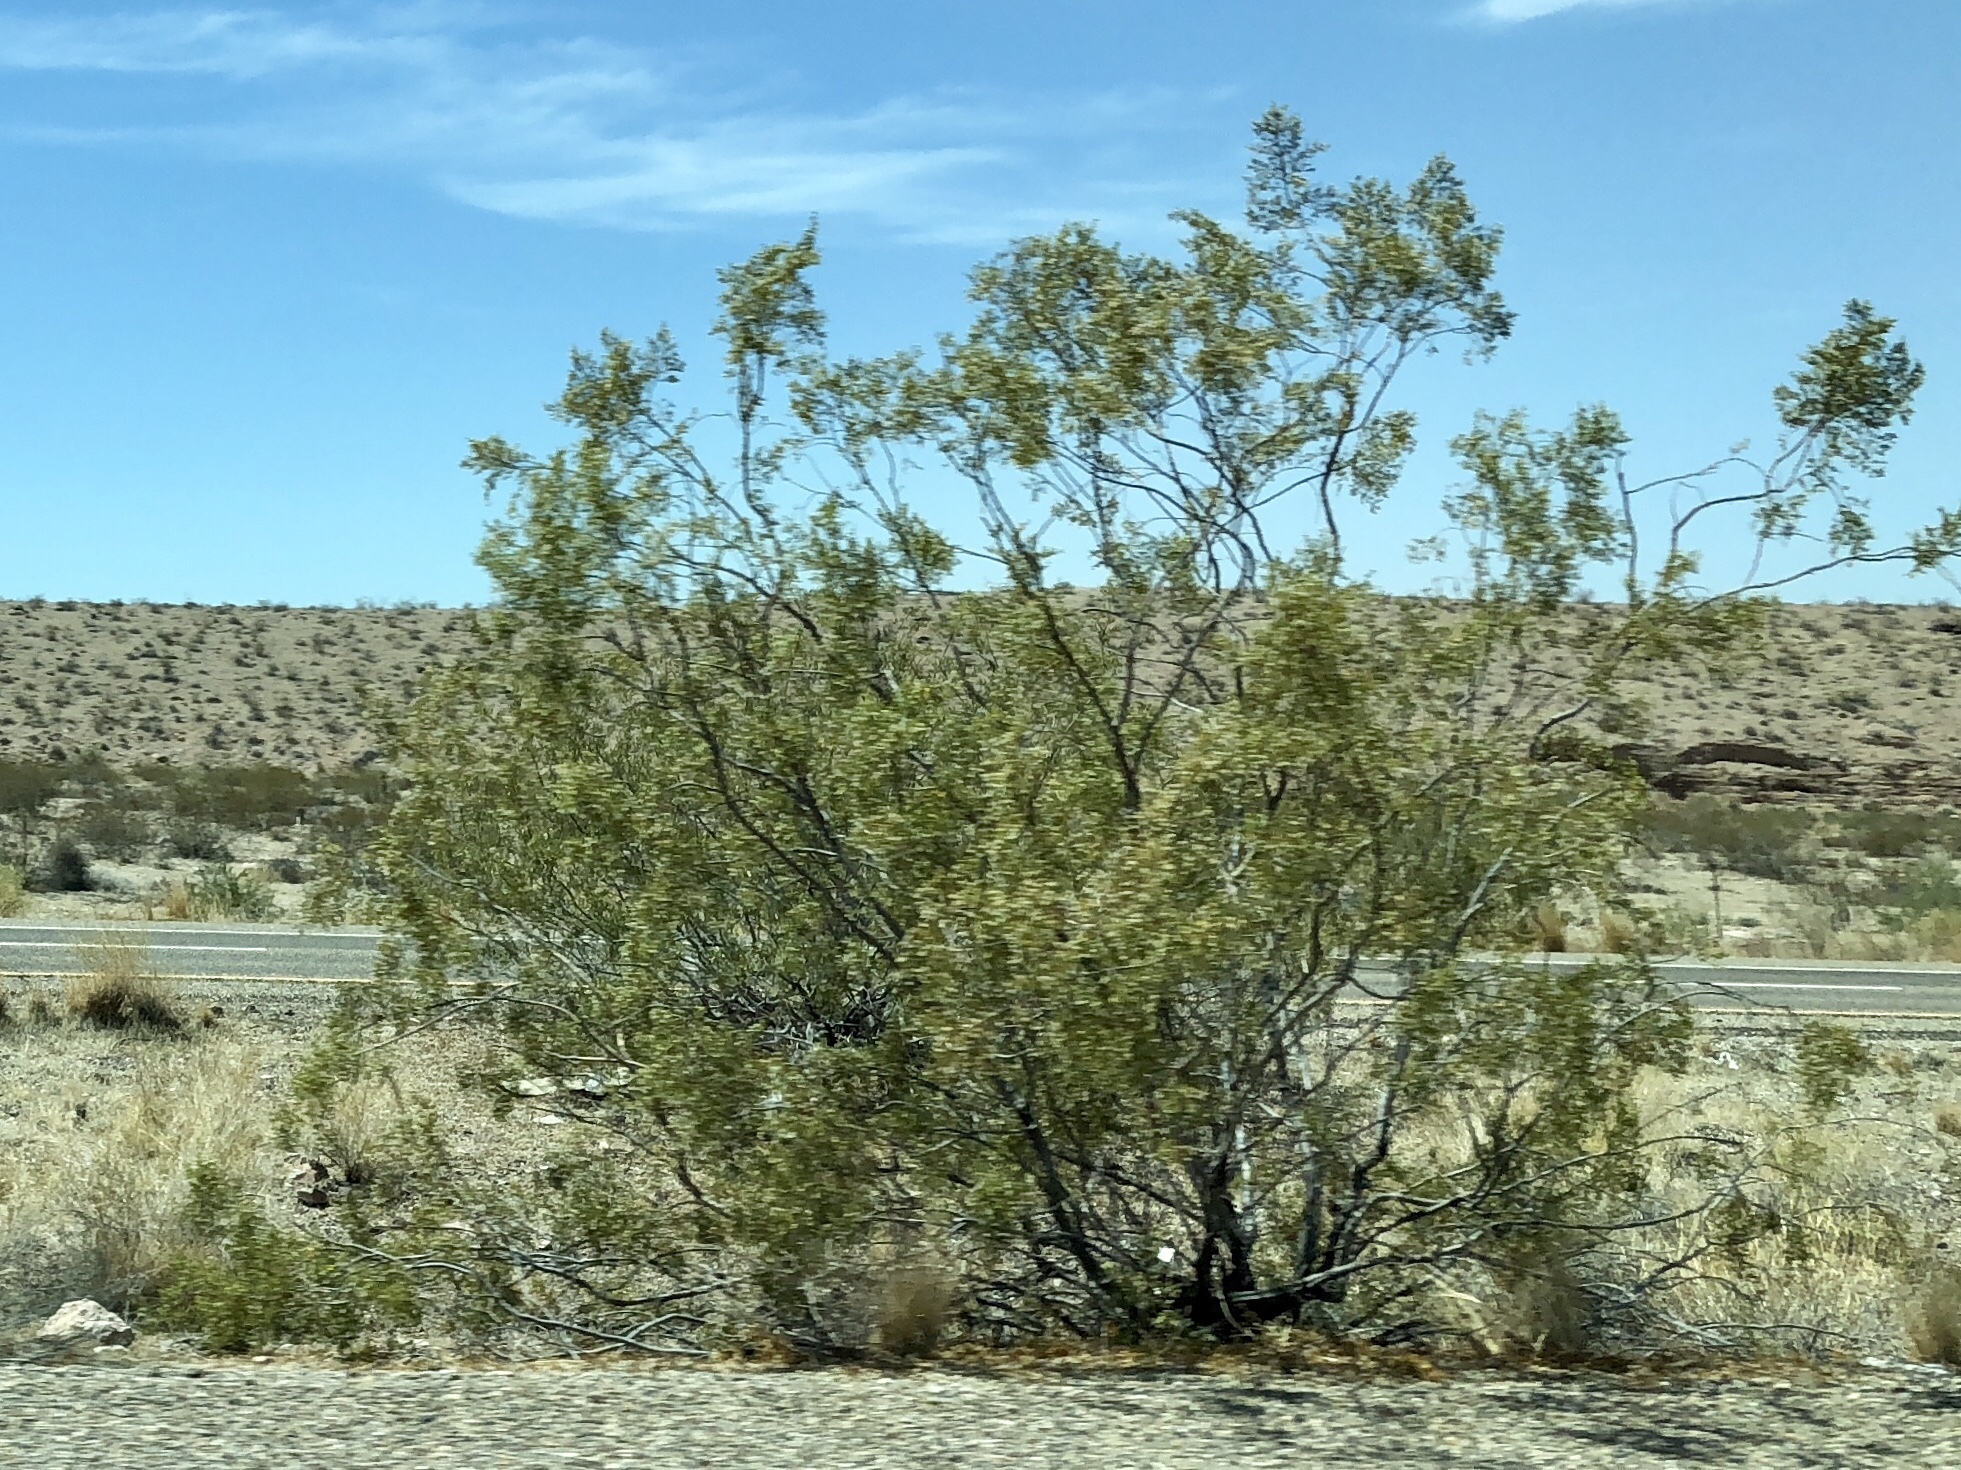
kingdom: Plantae
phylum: Tracheophyta
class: Magnoliopsida
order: Zygophyllales
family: Zygophyllaceae
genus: Larrea
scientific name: Larrea tridentata
